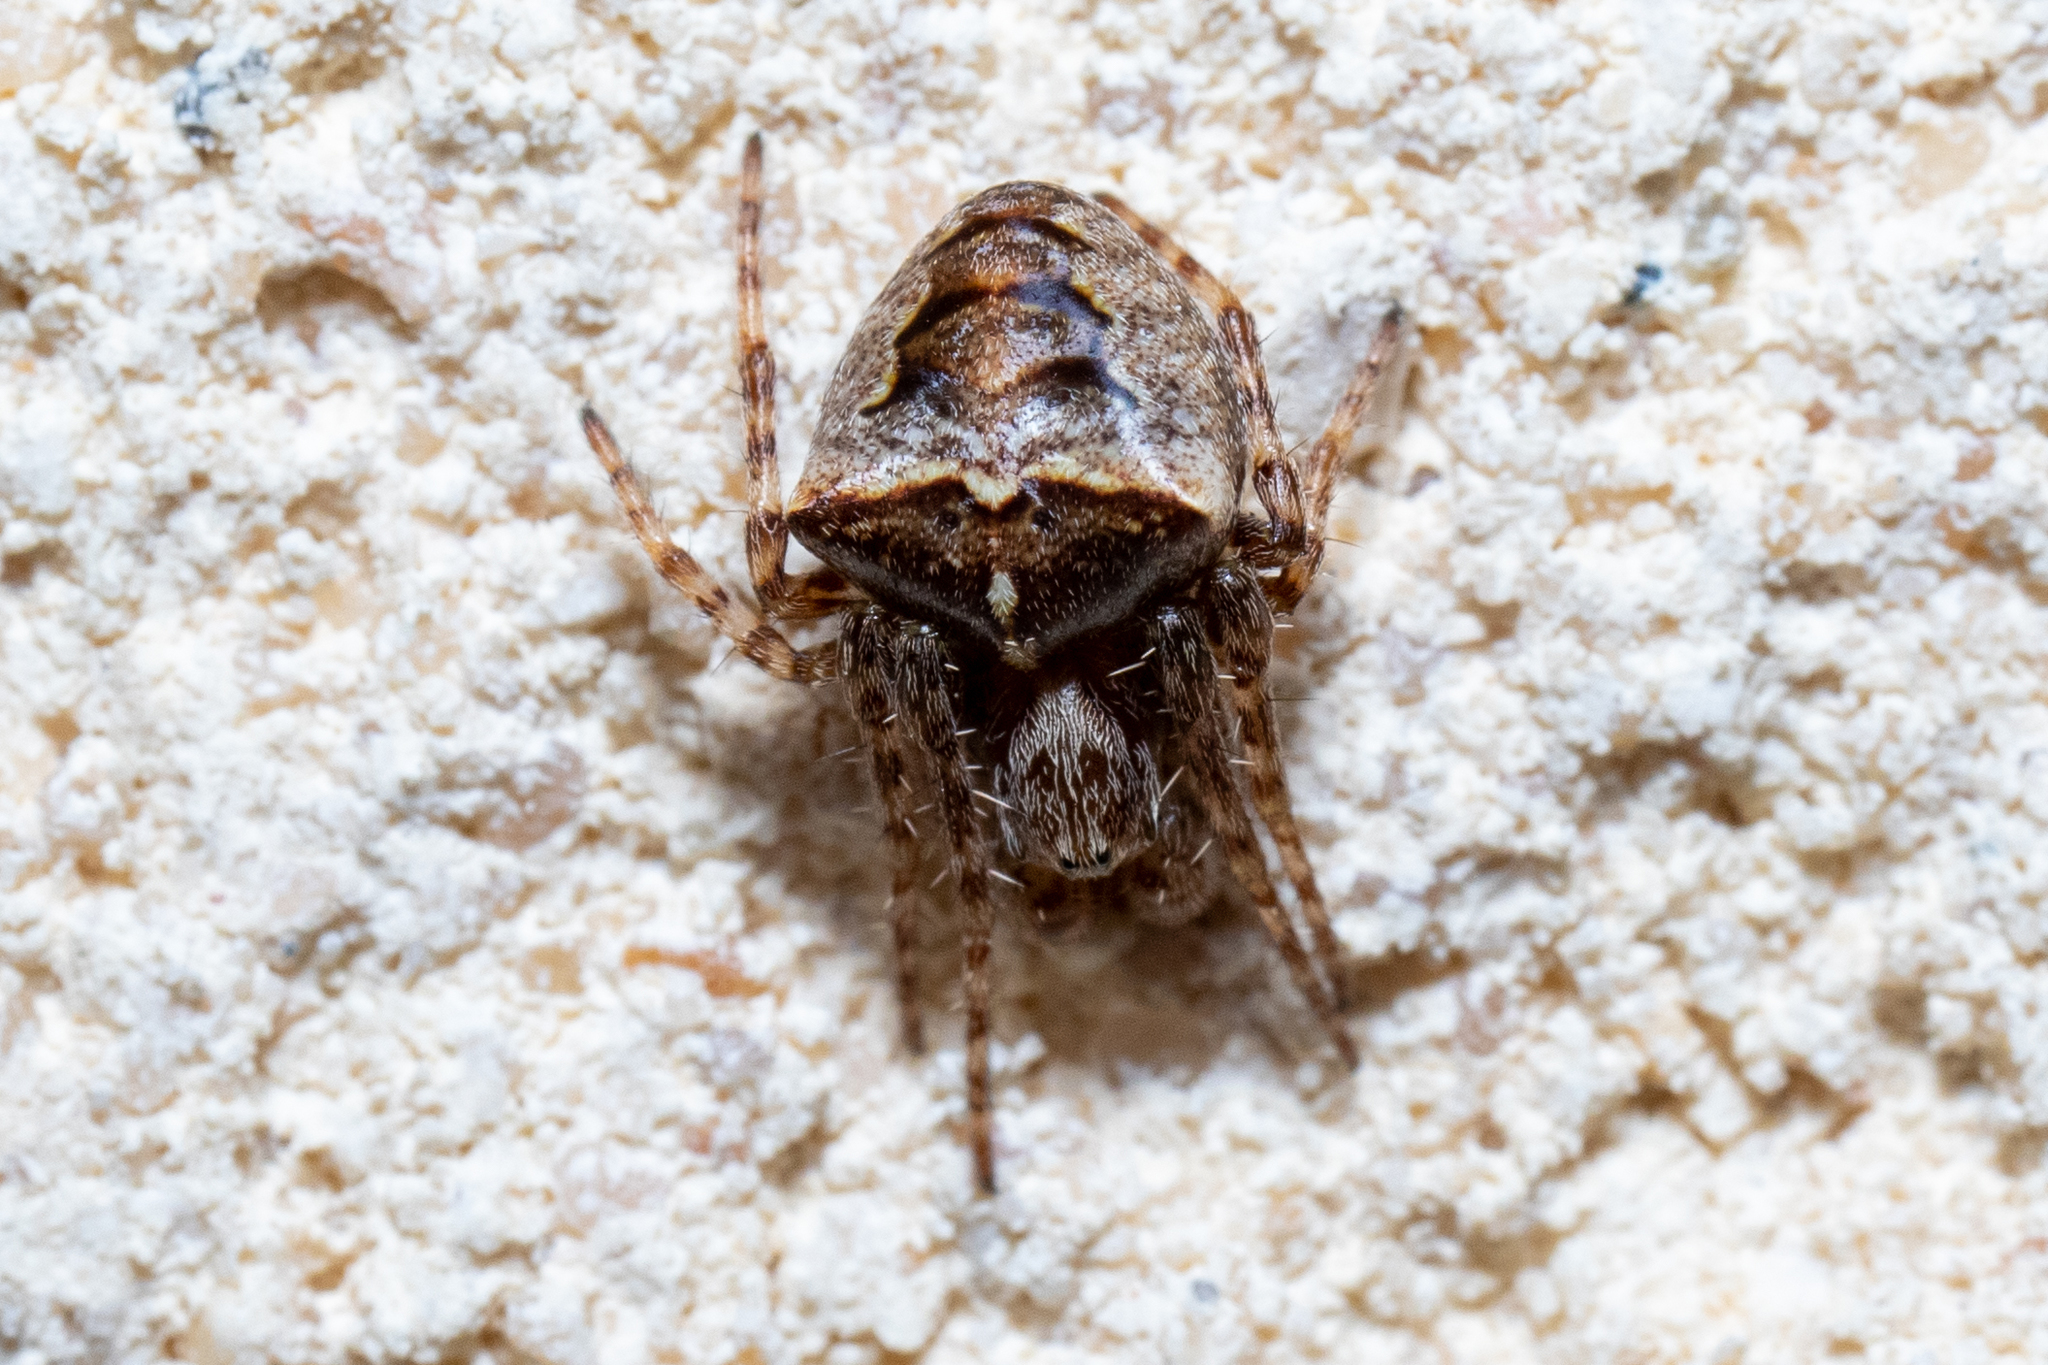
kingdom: Animalia
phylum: Arthropoda
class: Arachnida
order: Araneae
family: Araneidae
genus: Gibbaranea
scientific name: Gibbaranea bituberculata
